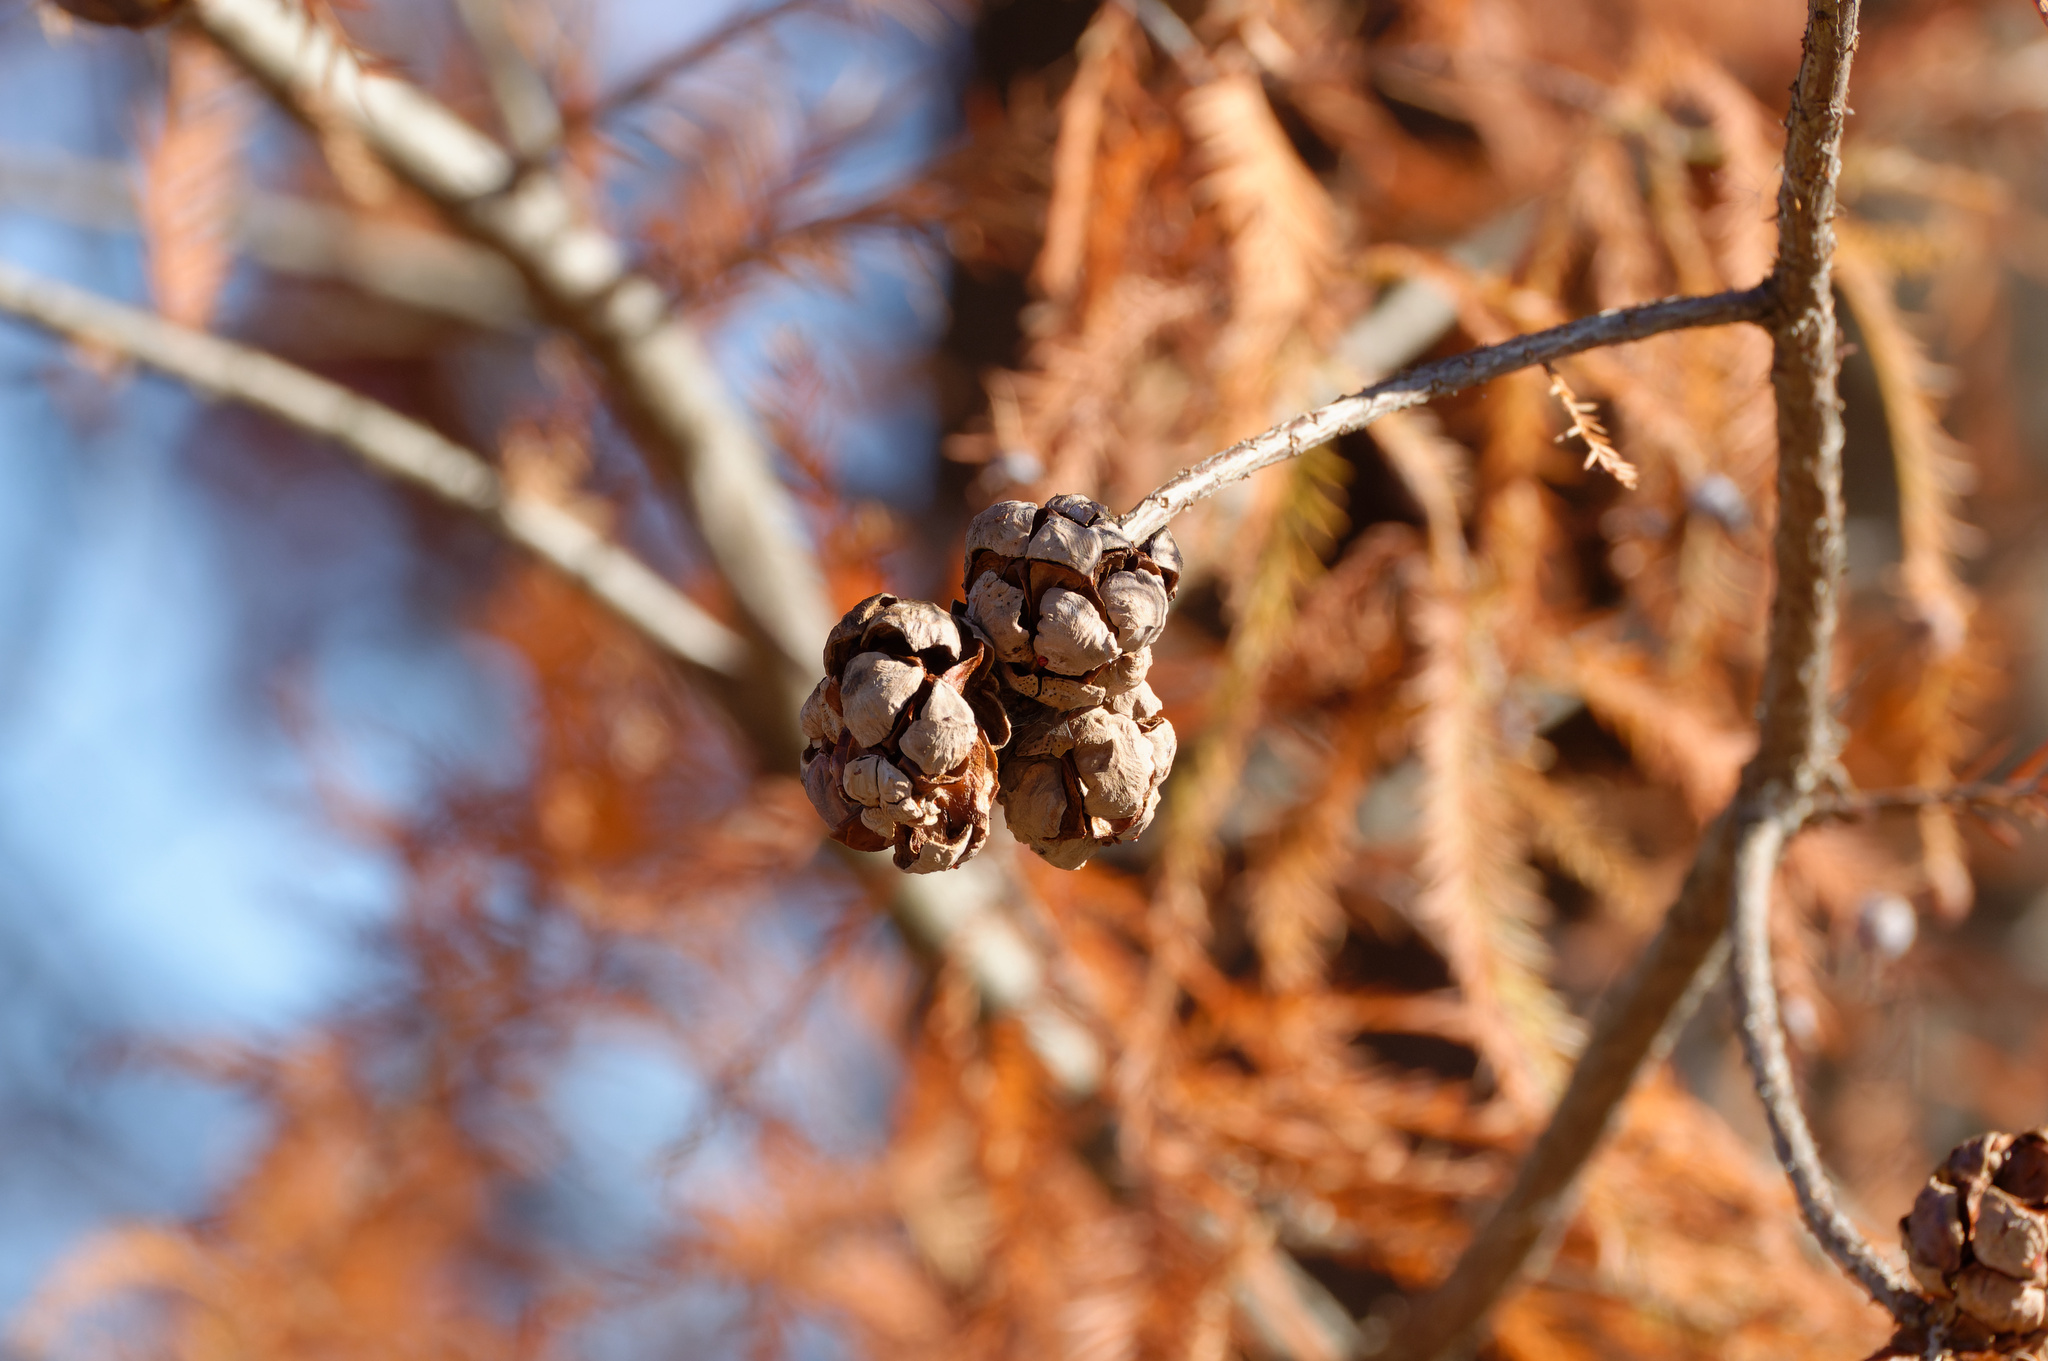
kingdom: Plantae
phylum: Tracheophyta
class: Pinopsida
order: Pinales
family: Cupressaceae
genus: Taxodium
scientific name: Taxodium distichum
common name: Bald cypress
